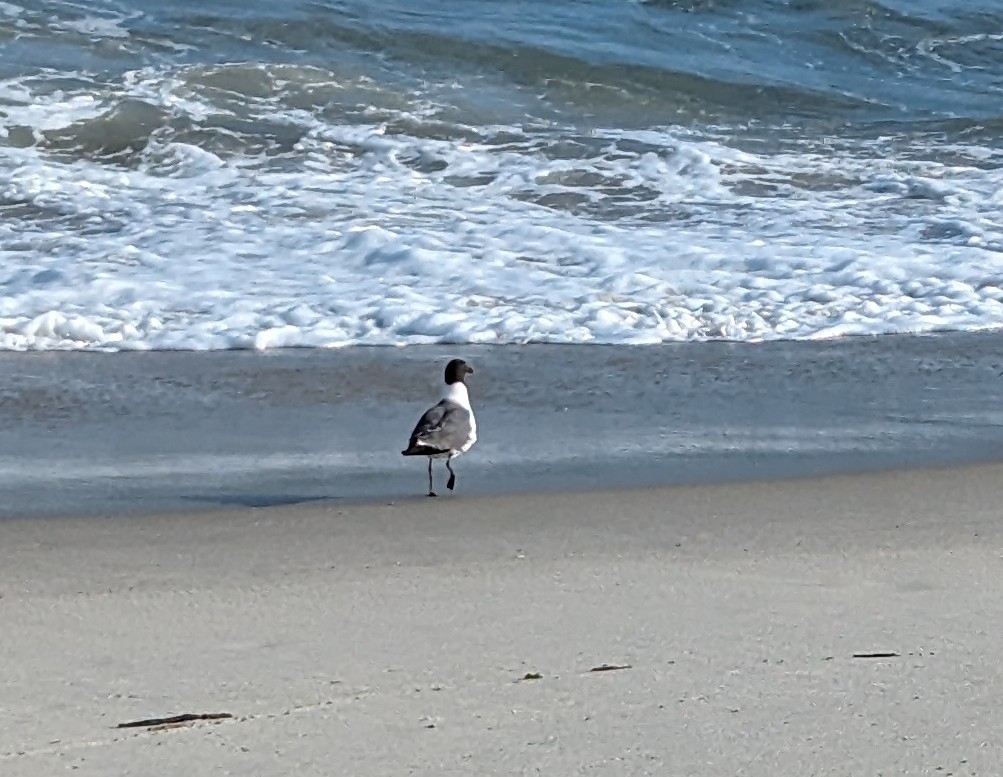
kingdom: Animalia
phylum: Chordata
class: Aves
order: Charadriiformes
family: Laridae
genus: Leucophaeus
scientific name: Leucophaeus atricilla
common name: Laughing gull
